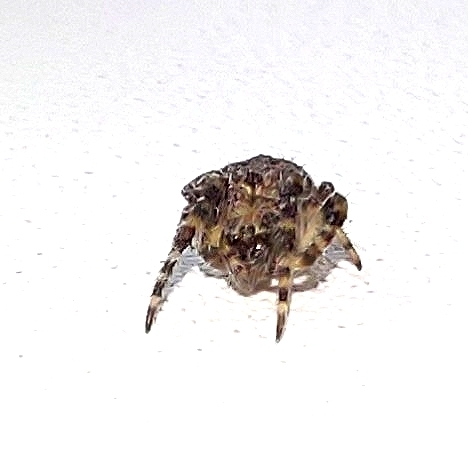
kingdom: Animalia
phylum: Arthropoda
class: Arachnida
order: Araneae
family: Araneidae
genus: Larinioides
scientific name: Larinioides
